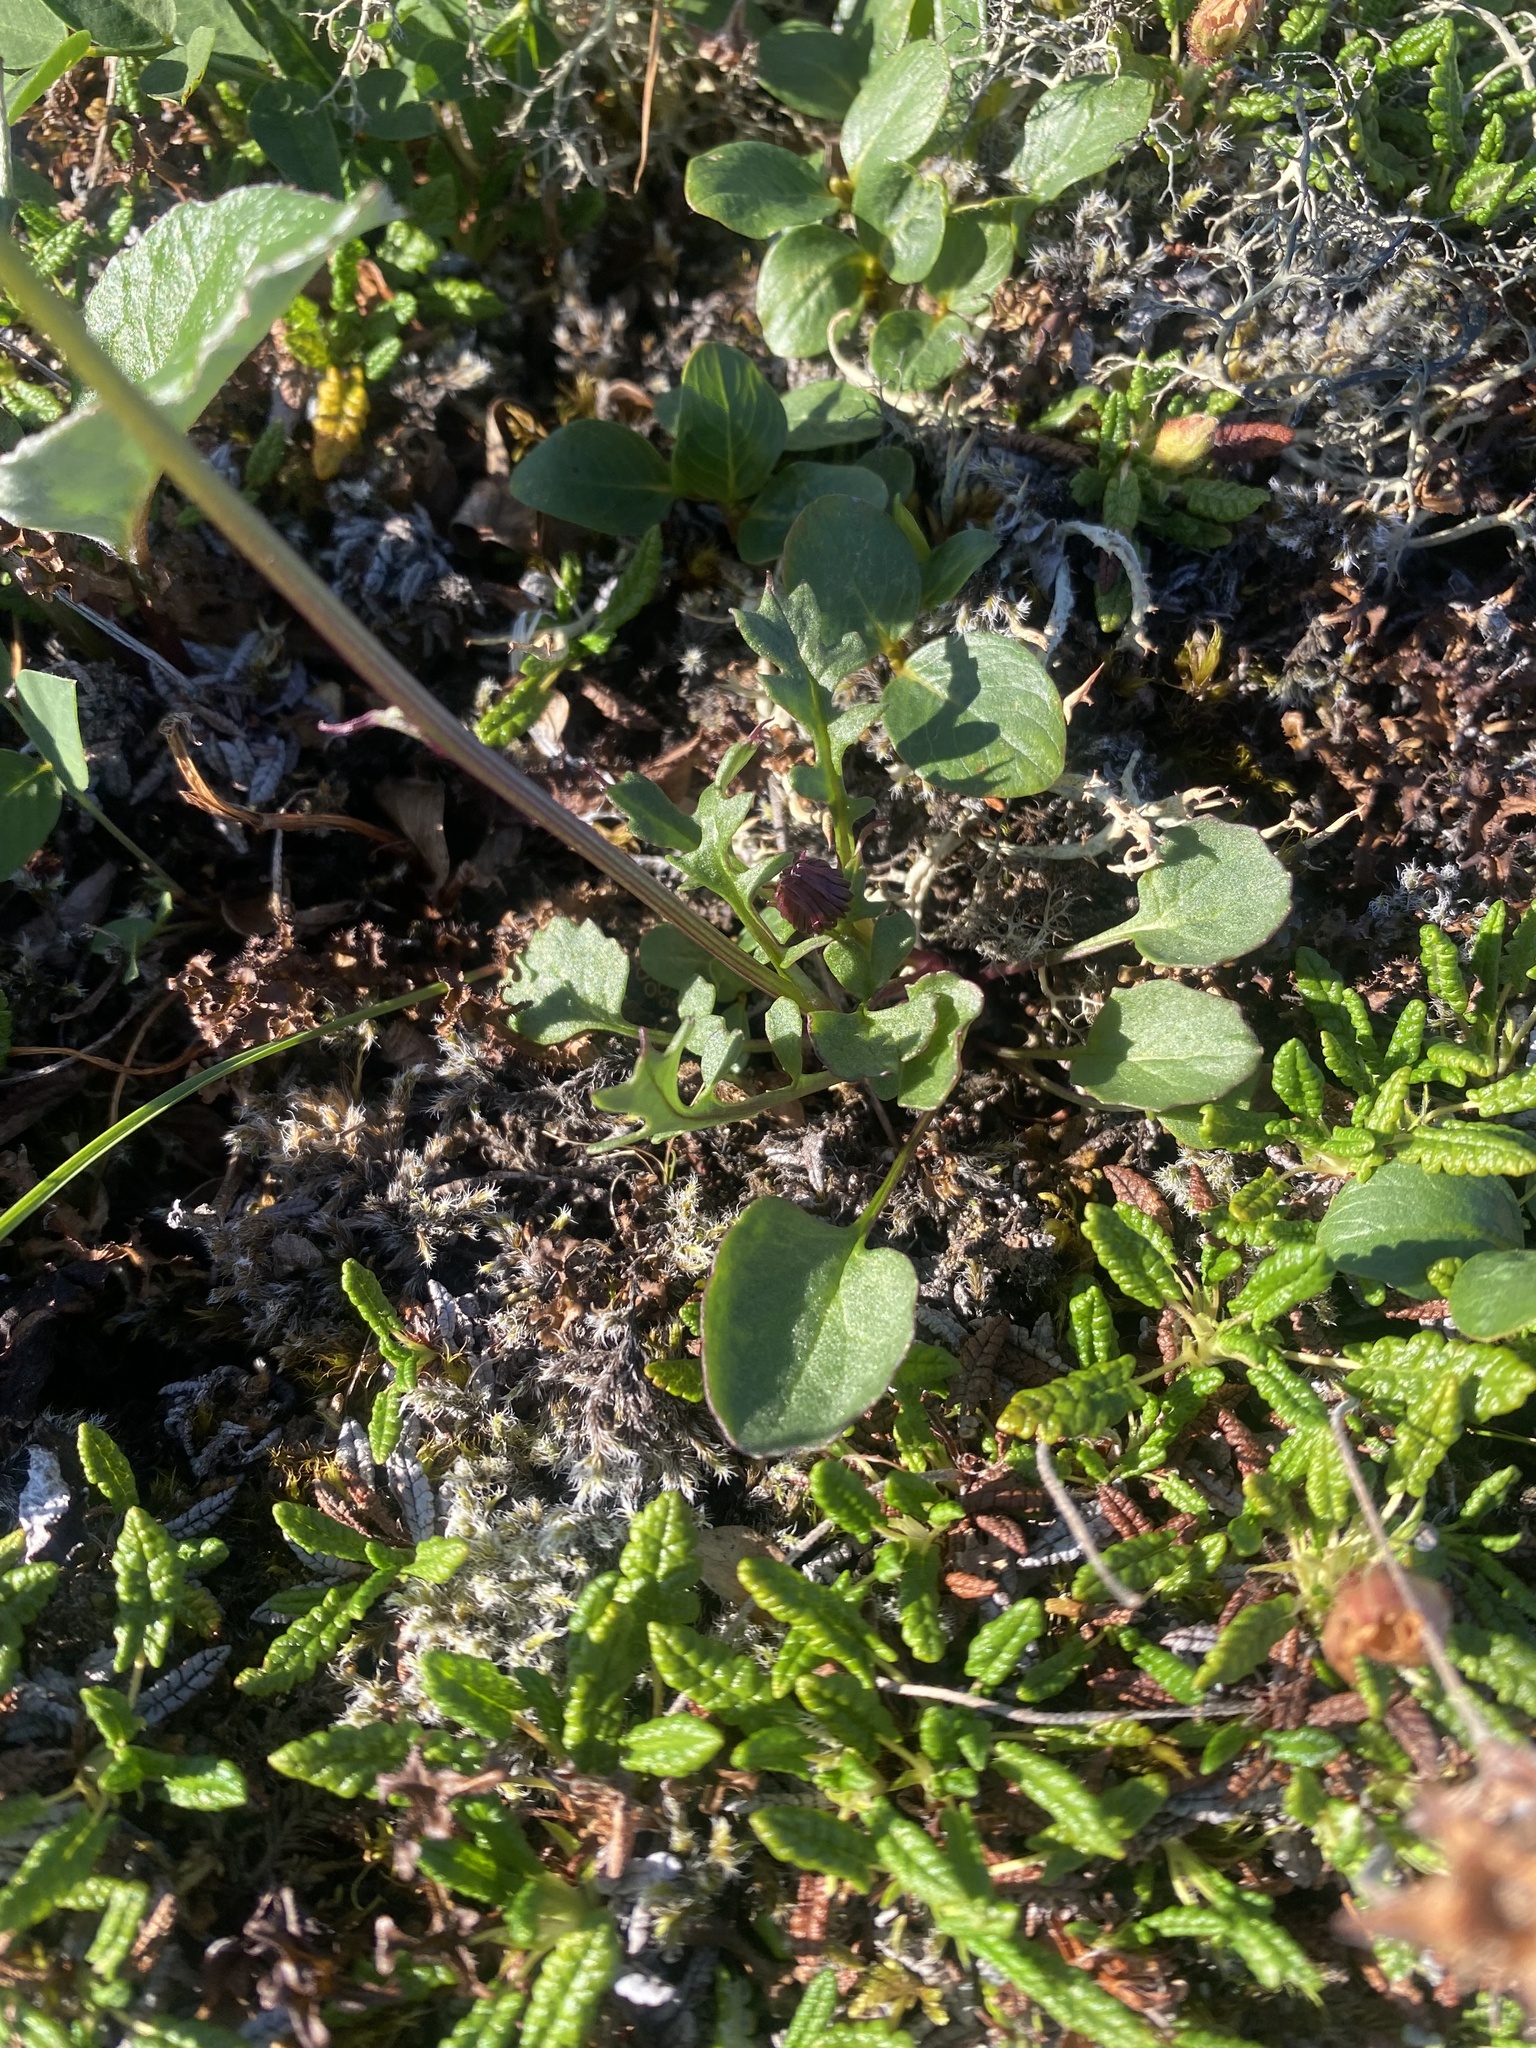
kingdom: Plantae
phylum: Tracheophyta
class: Magnoliopsida
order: Asterales
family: Asteraceae
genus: Arnica
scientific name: Arnica angustifolia
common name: Arctic arnica
